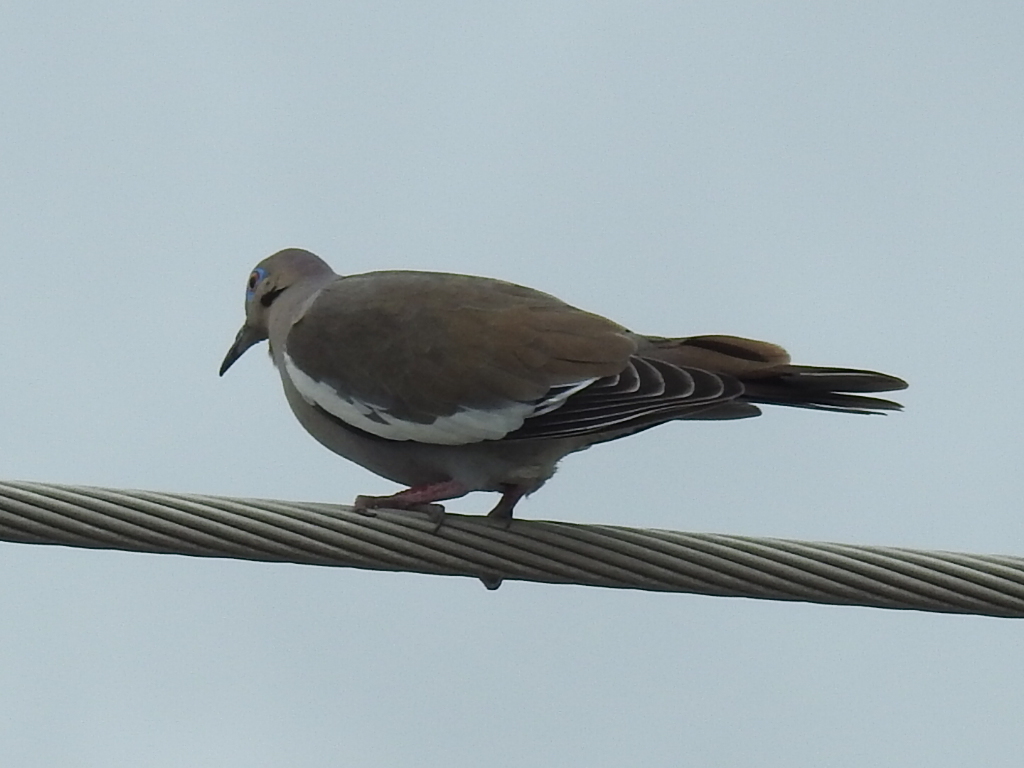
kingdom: Animalia
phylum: Chordata
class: Aves
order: Columbiformes
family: Columbidae
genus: Zenaida
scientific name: Zenaida asiatica
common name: White-winged dove
